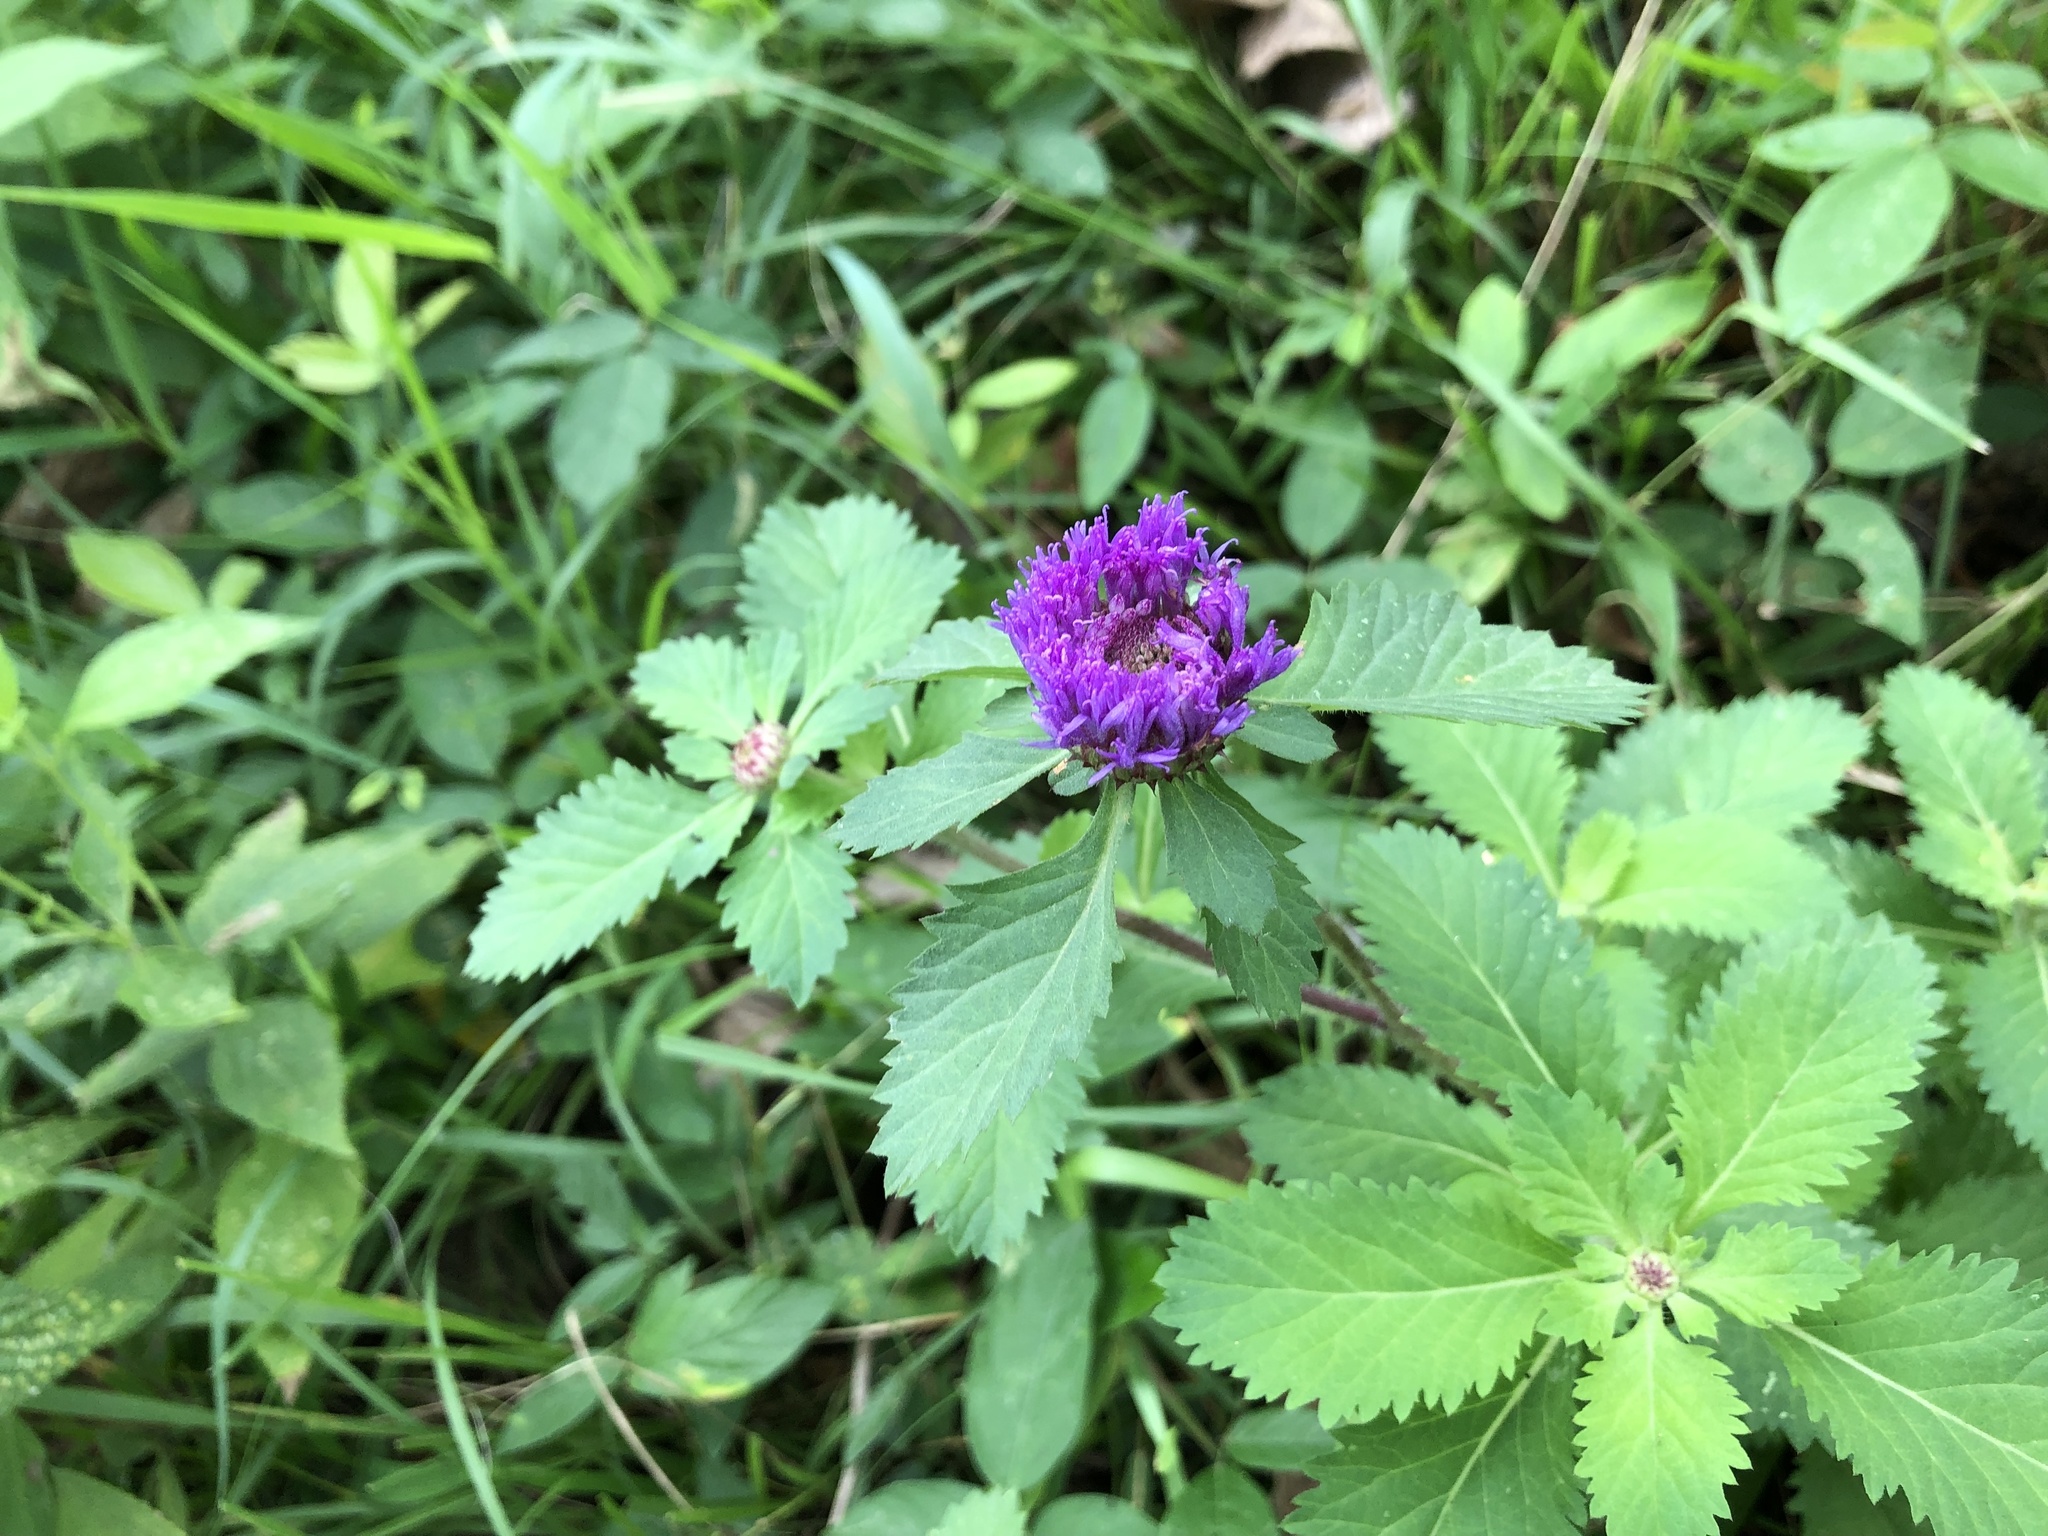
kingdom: Plantae
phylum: Tracheophyta
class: Magnoliopsida
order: Asterales
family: Asteraceae
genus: Centratherum
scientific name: Centratherum punctatum
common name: Larkdaisy
